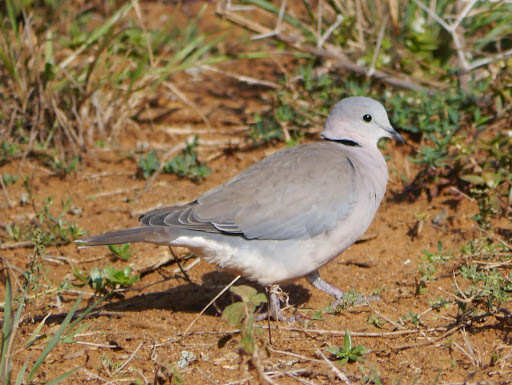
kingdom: Animalia
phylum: Chordata
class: Aves
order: Columbiformes
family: Columbidae
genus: Streptopelia
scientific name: Streptopelia capicola
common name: Ring-necked dove
